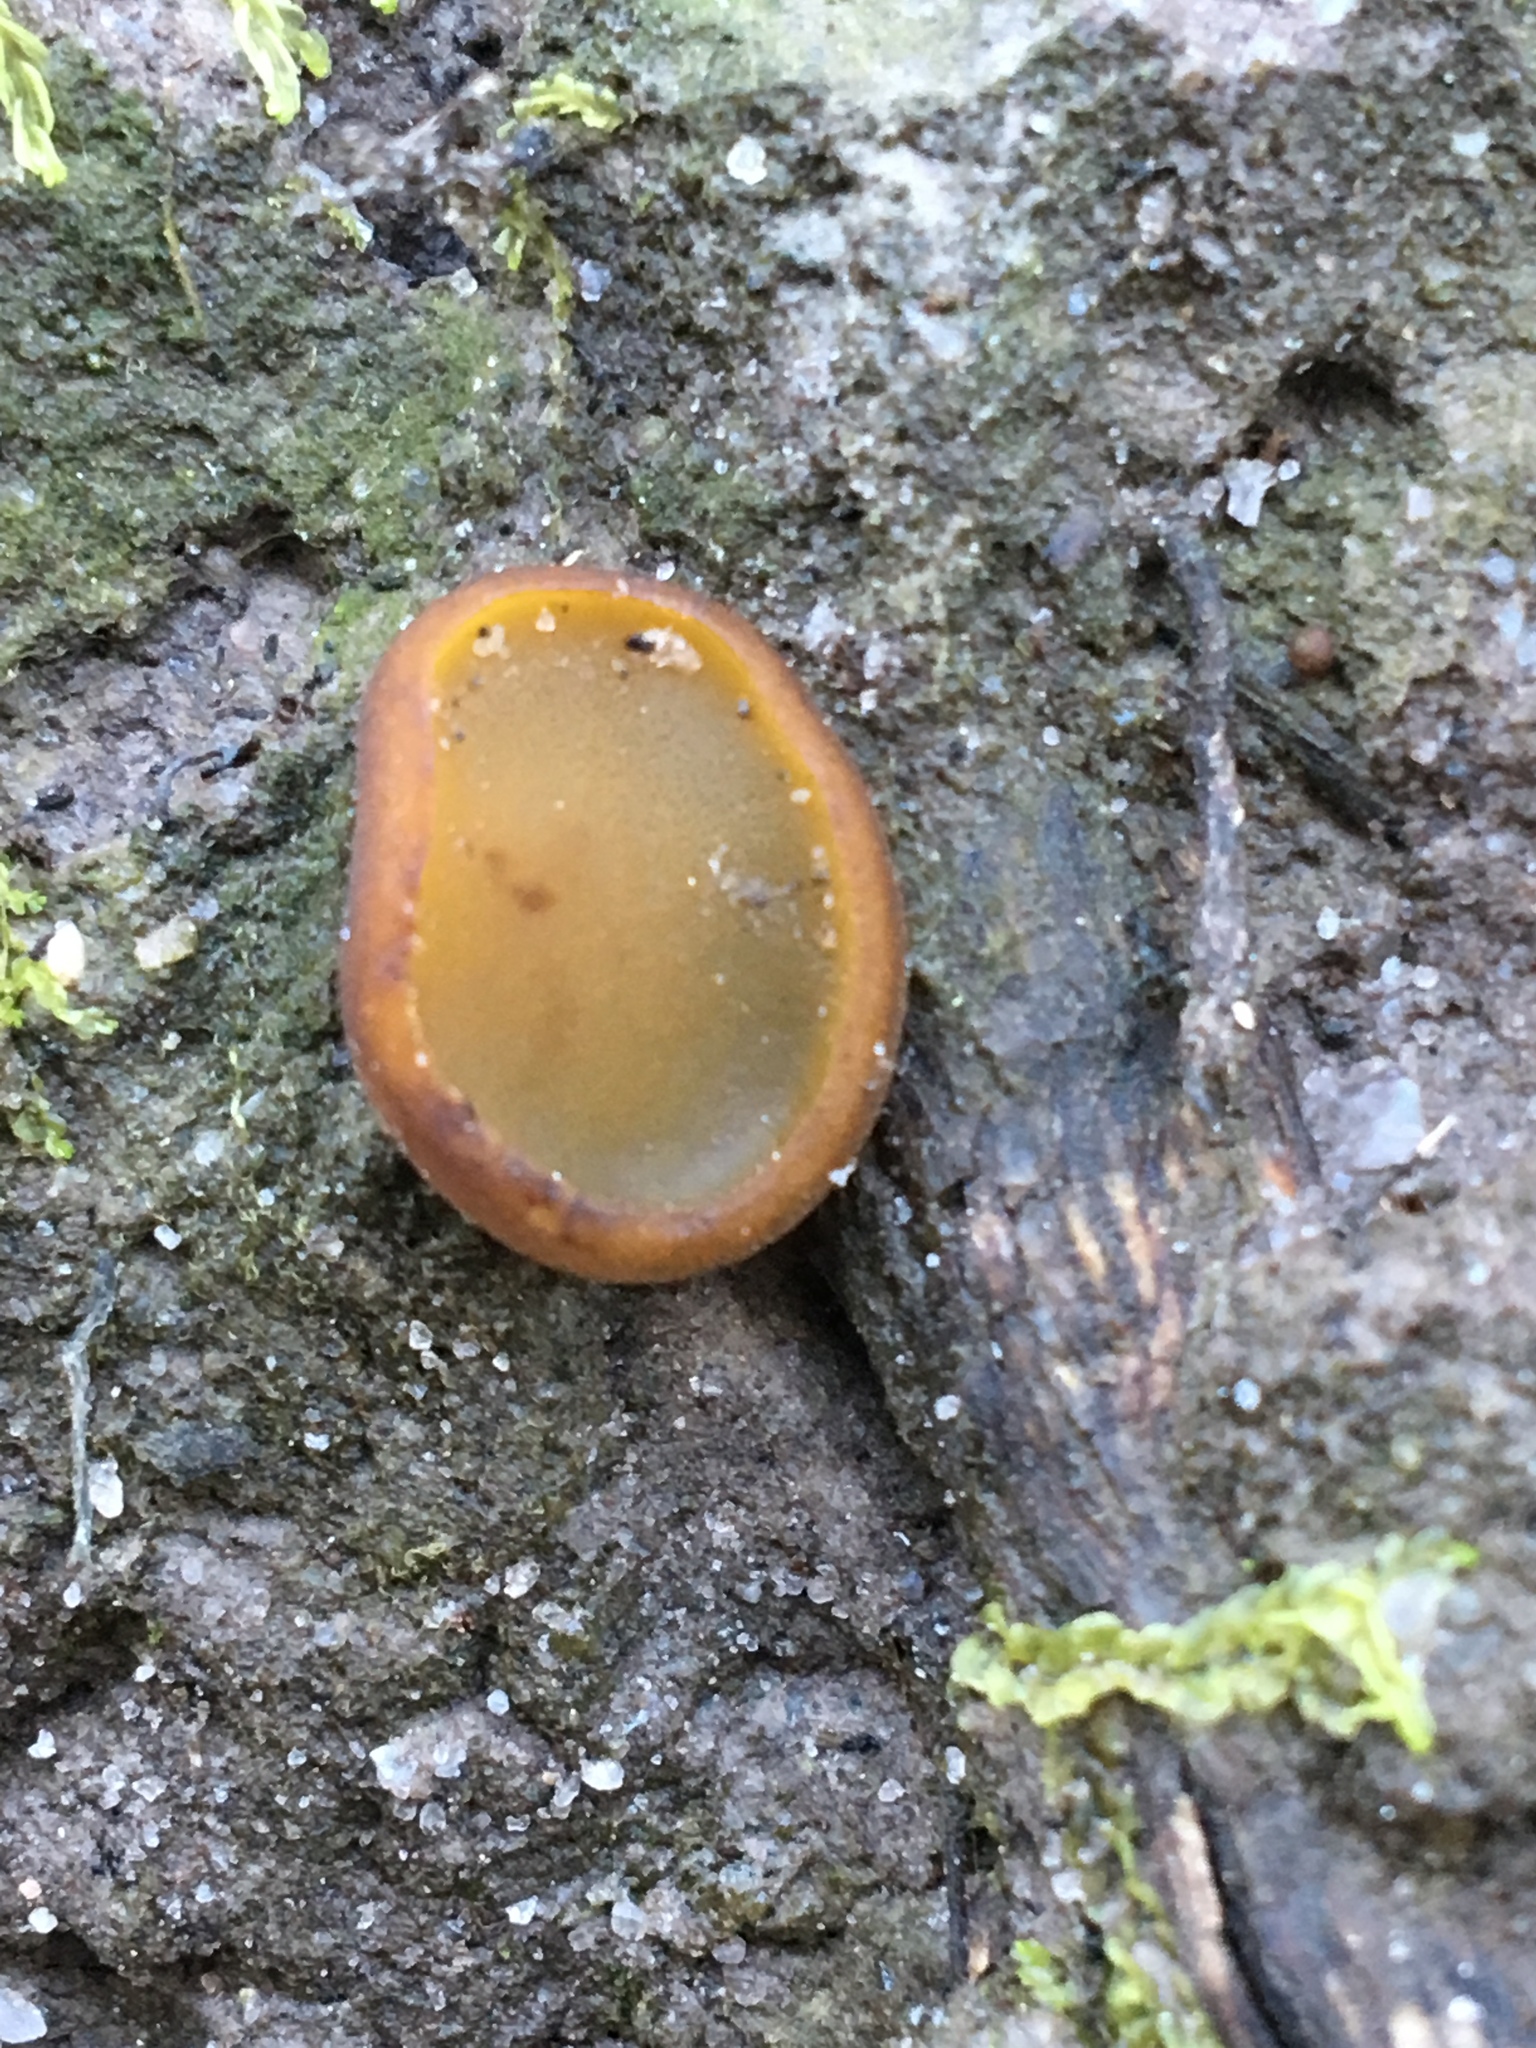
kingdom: Fungi
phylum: Ascomycota
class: Pezizomycetes
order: Pezizales
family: Pyronemataceae
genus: Aleurina
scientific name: Aleurina ferruginea
